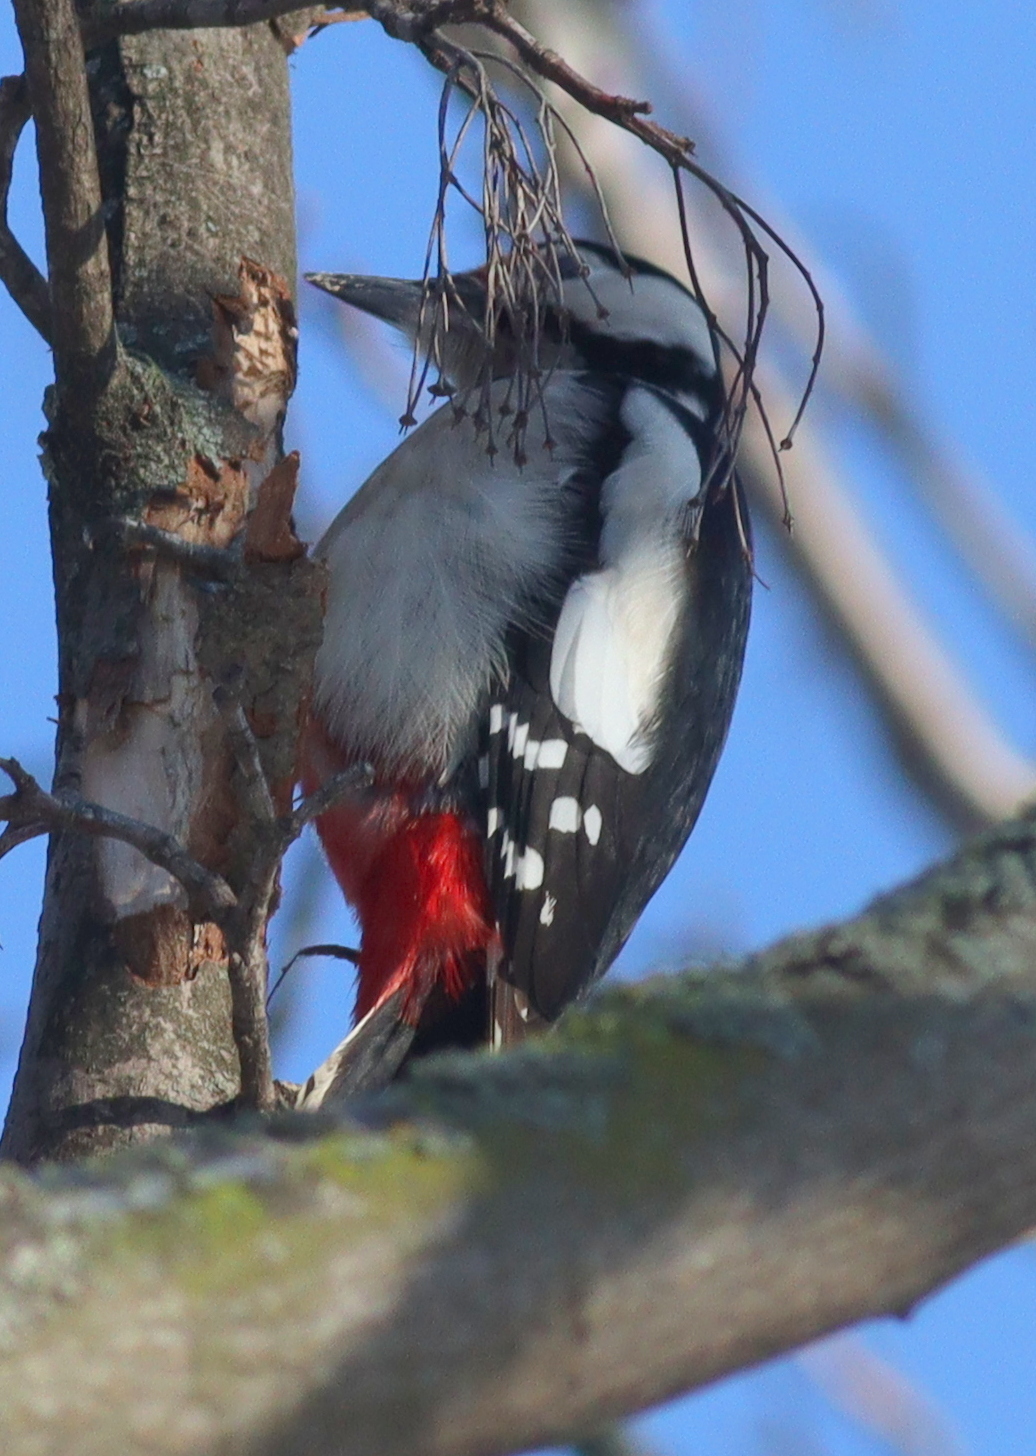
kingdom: Animalia
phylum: Chordata
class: Aves
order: Piciformes
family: Picidae
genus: Dendrocopos
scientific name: Dendrocopos major
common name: Great spotted woodpecker
